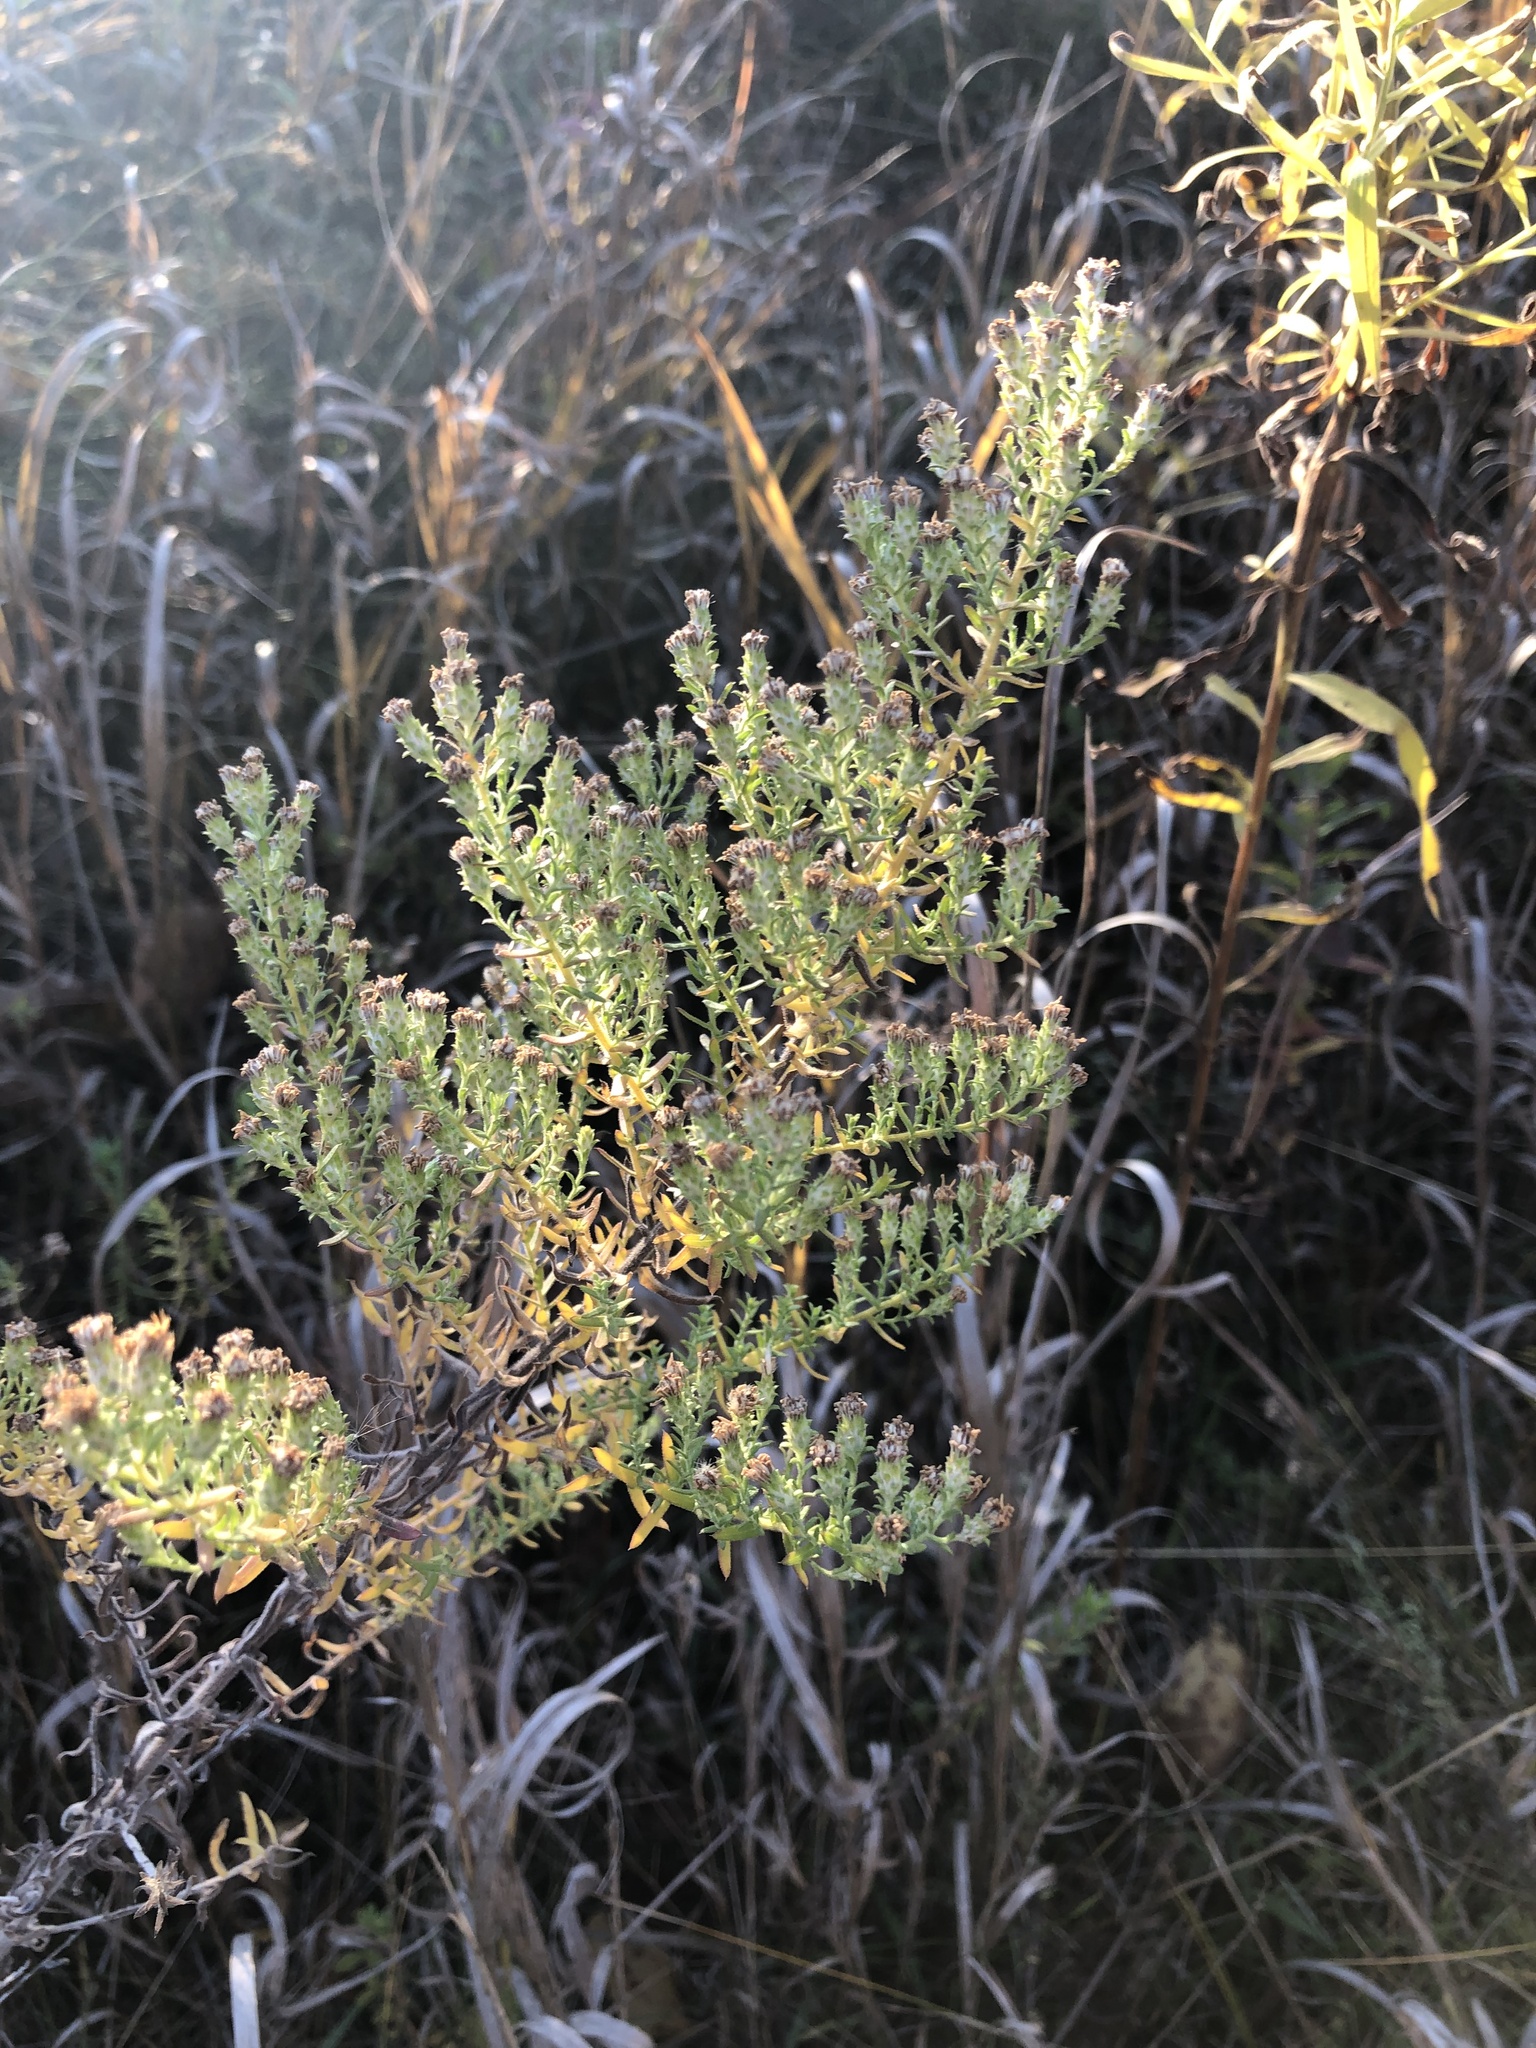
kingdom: Plantae
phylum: Tracheophyta
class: Magnoliopsida
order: Asterales
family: Asteraceae
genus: Symphyotrichum
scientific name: Symphyotrichum ericoides
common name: Heath aster
